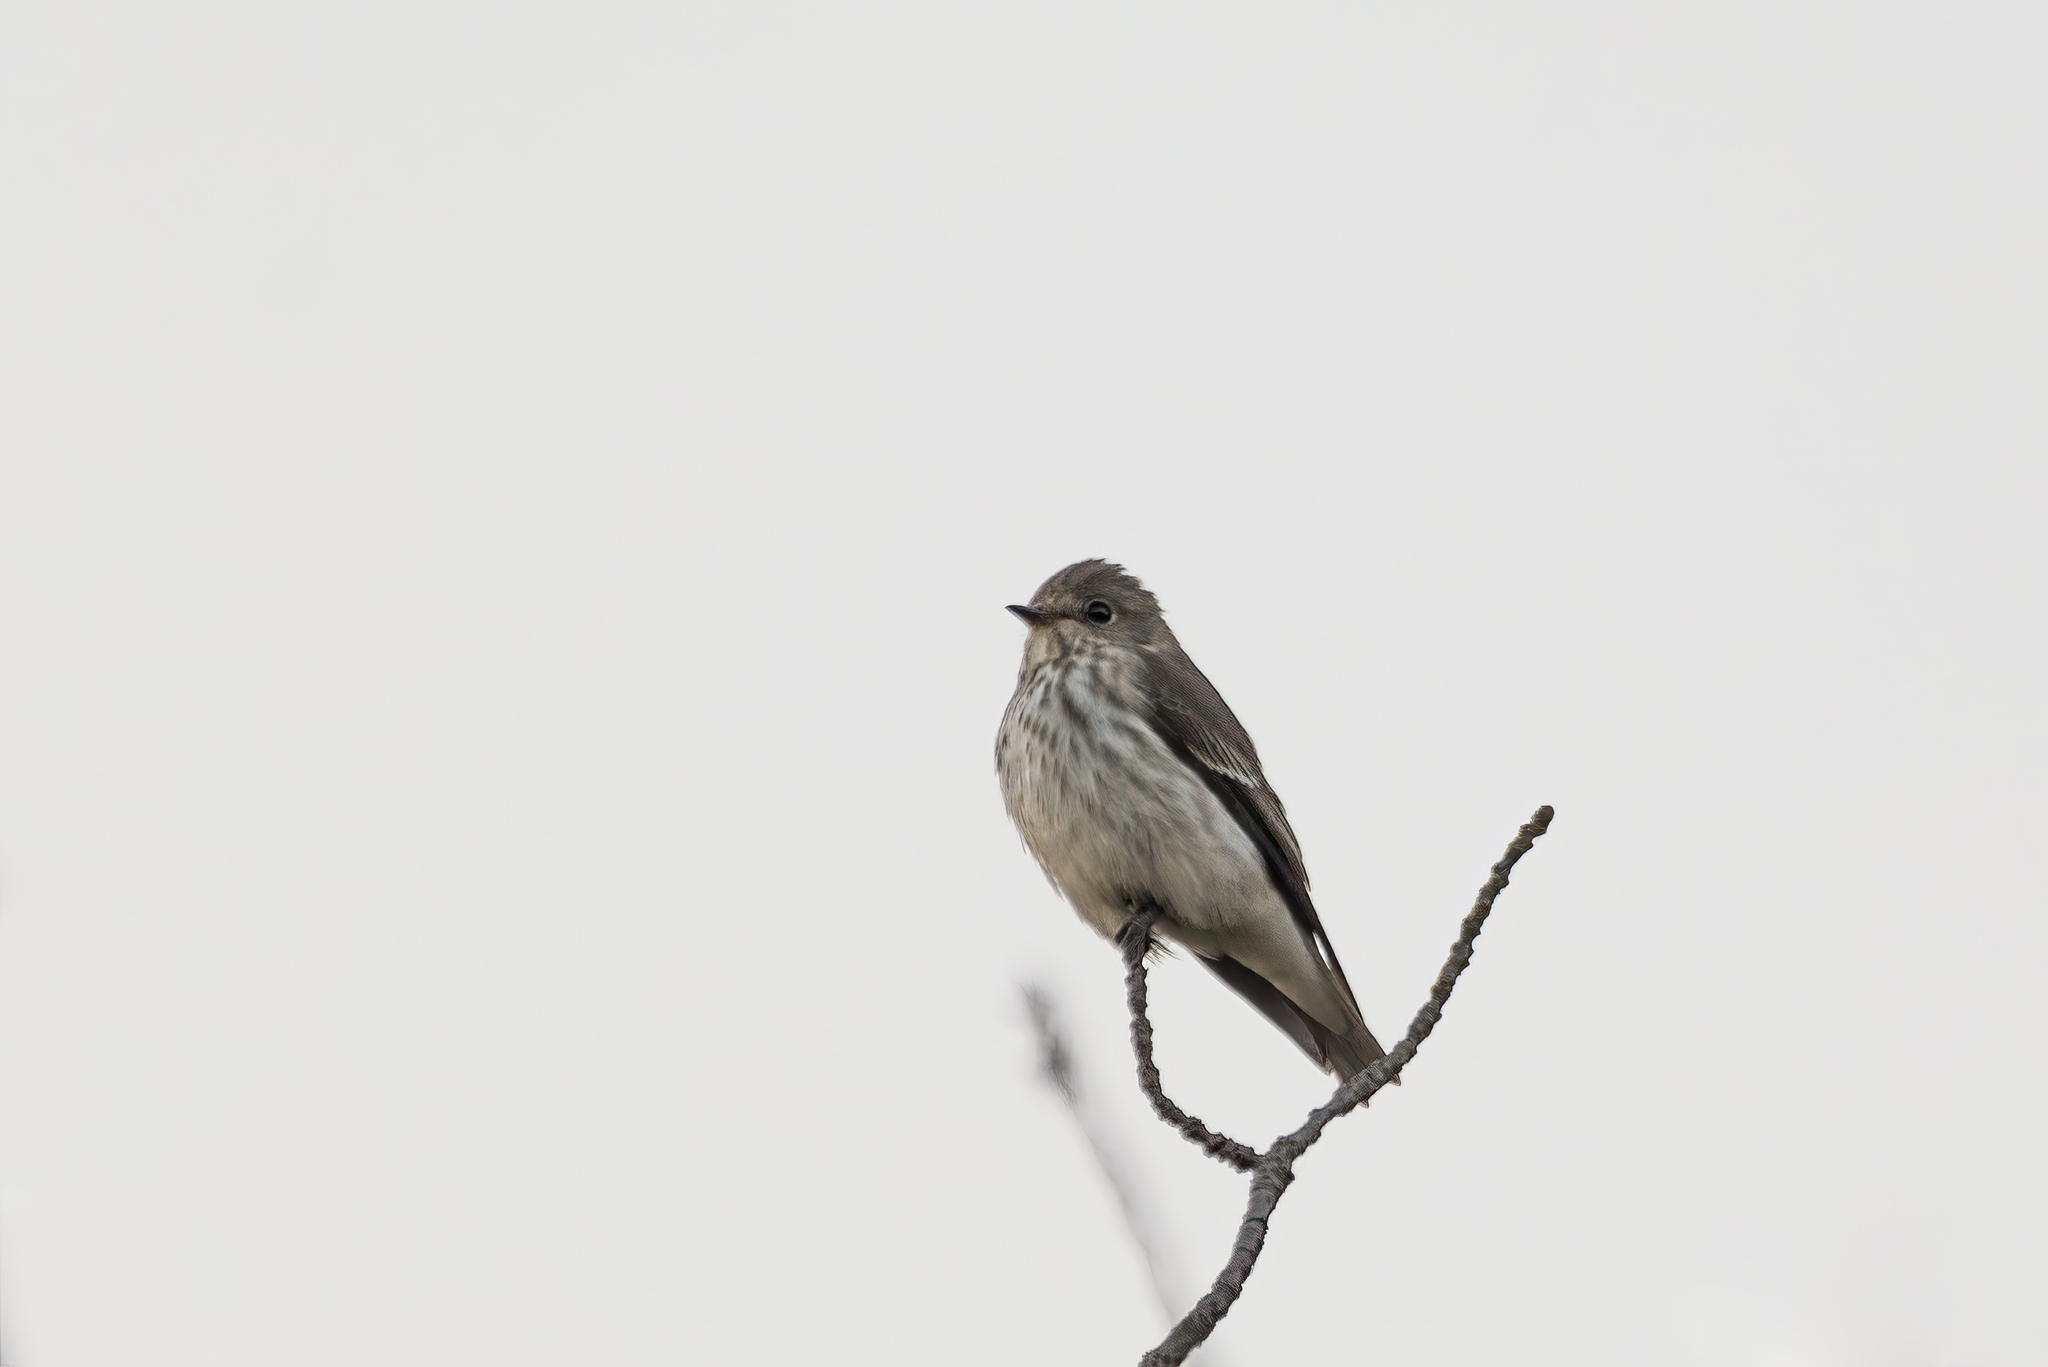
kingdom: Animalia
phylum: Chordata
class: Aves
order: Passeriformes
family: Muscicapidae
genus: Muscicapa
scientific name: Muscicapa griseisticta
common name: Gray-streaked flycatcher
